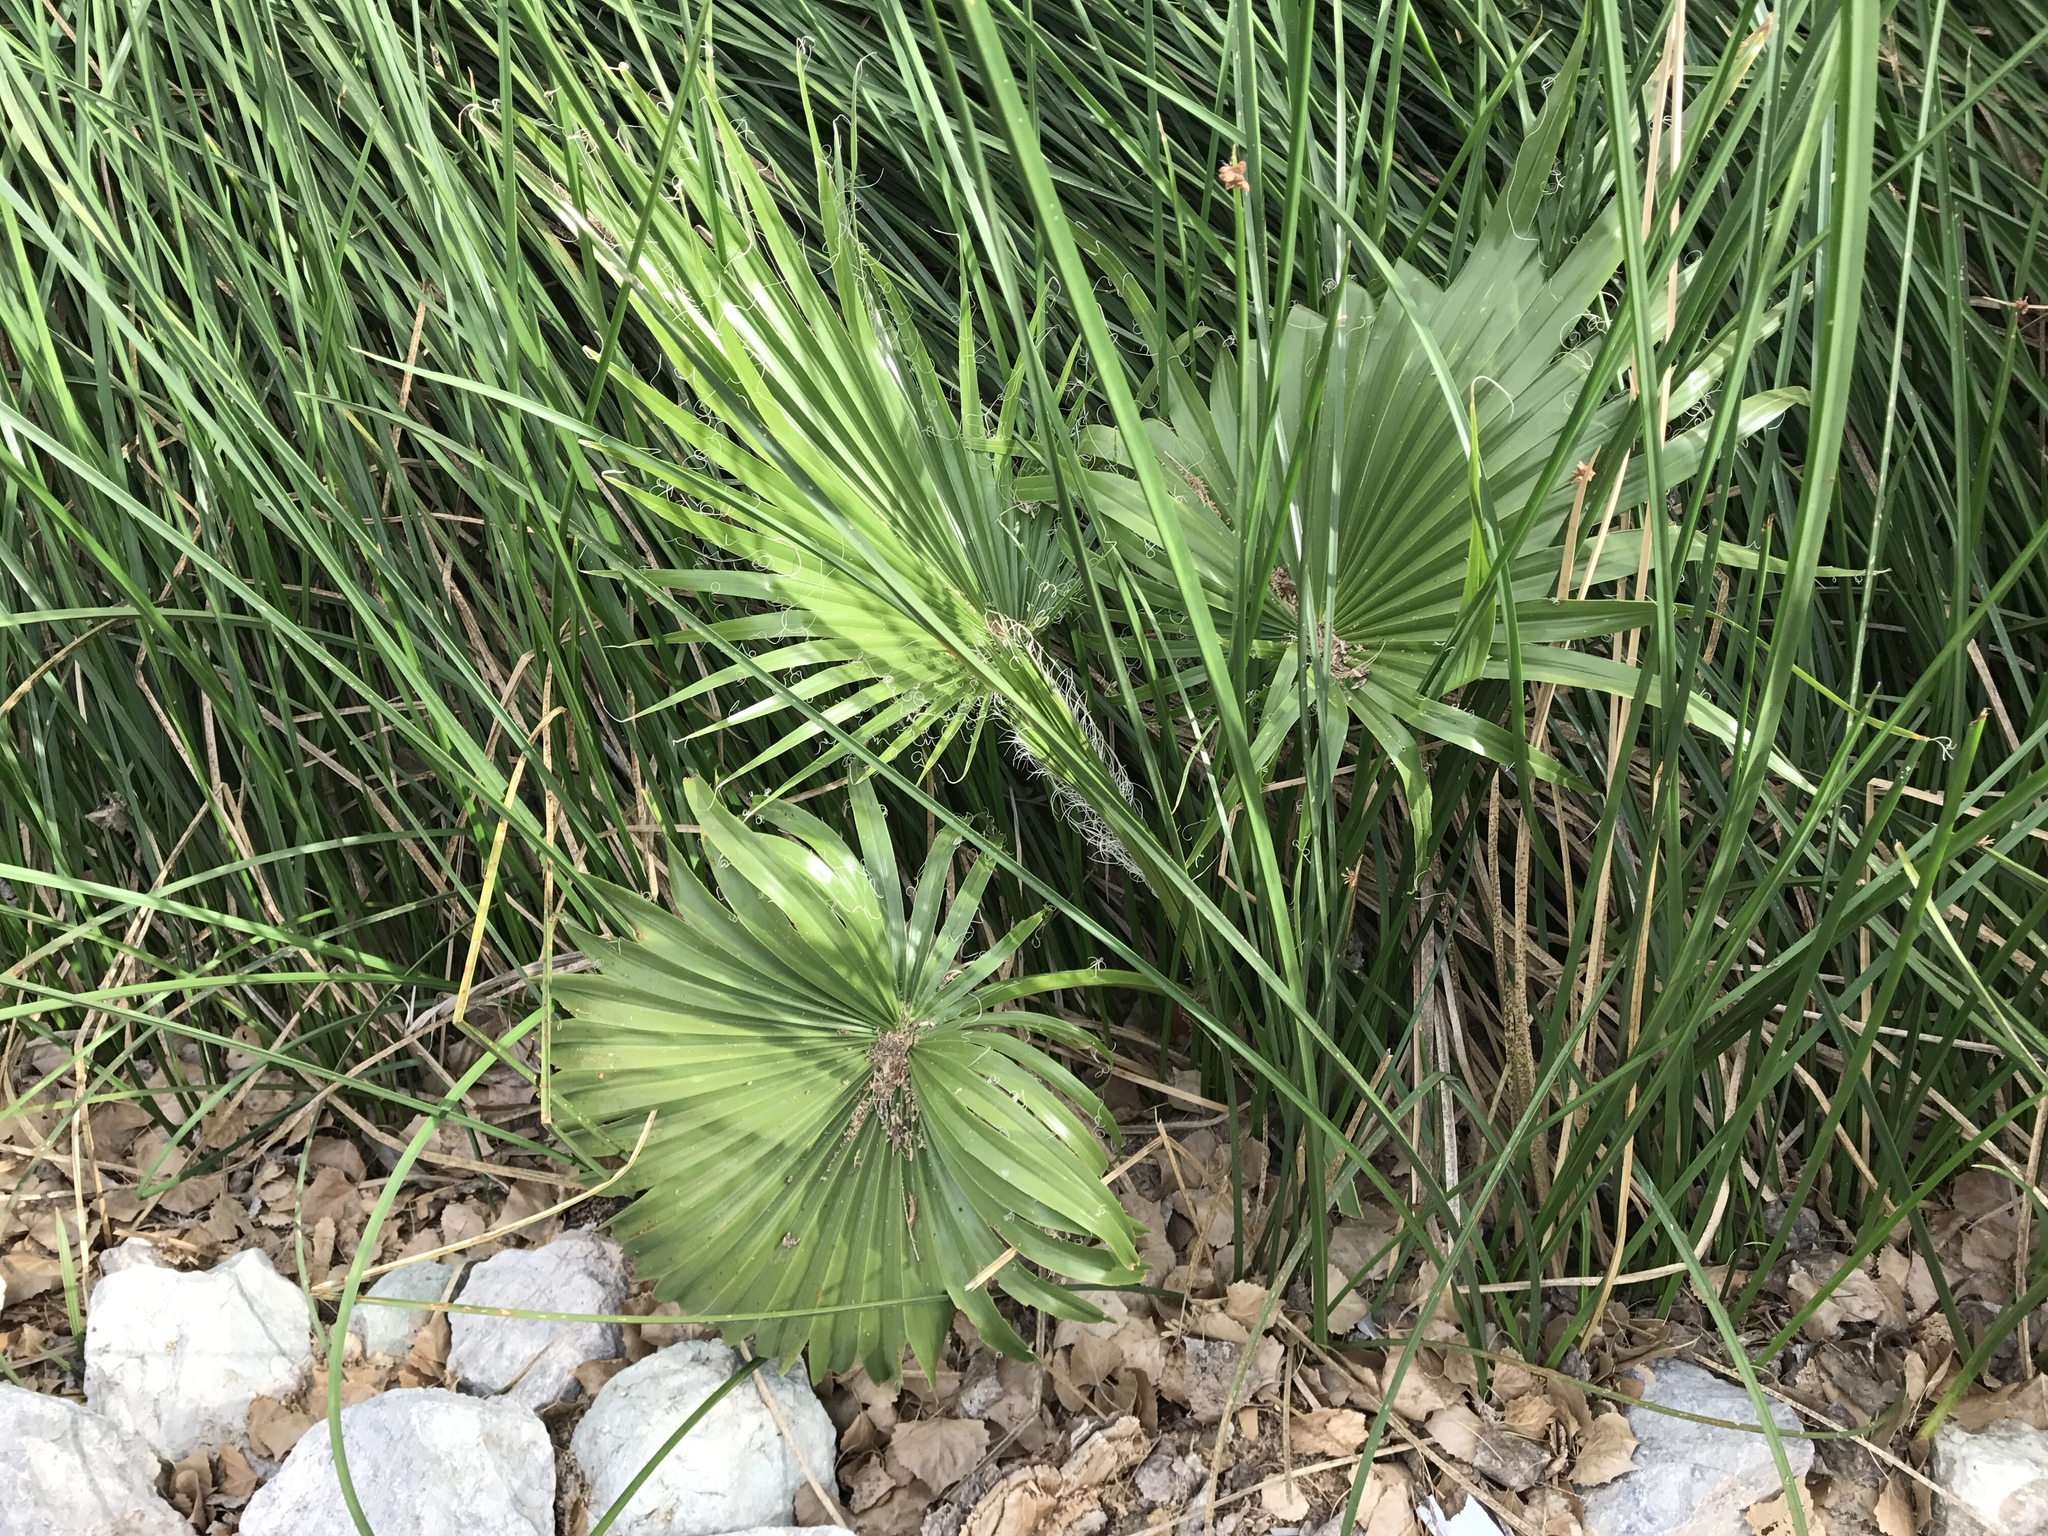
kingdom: Plantae
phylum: Tracheophyta
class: Liliopsida
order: Arecales
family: Arecaceae
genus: Washingtonia
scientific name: Washingtonia filifera
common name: California fan palm
